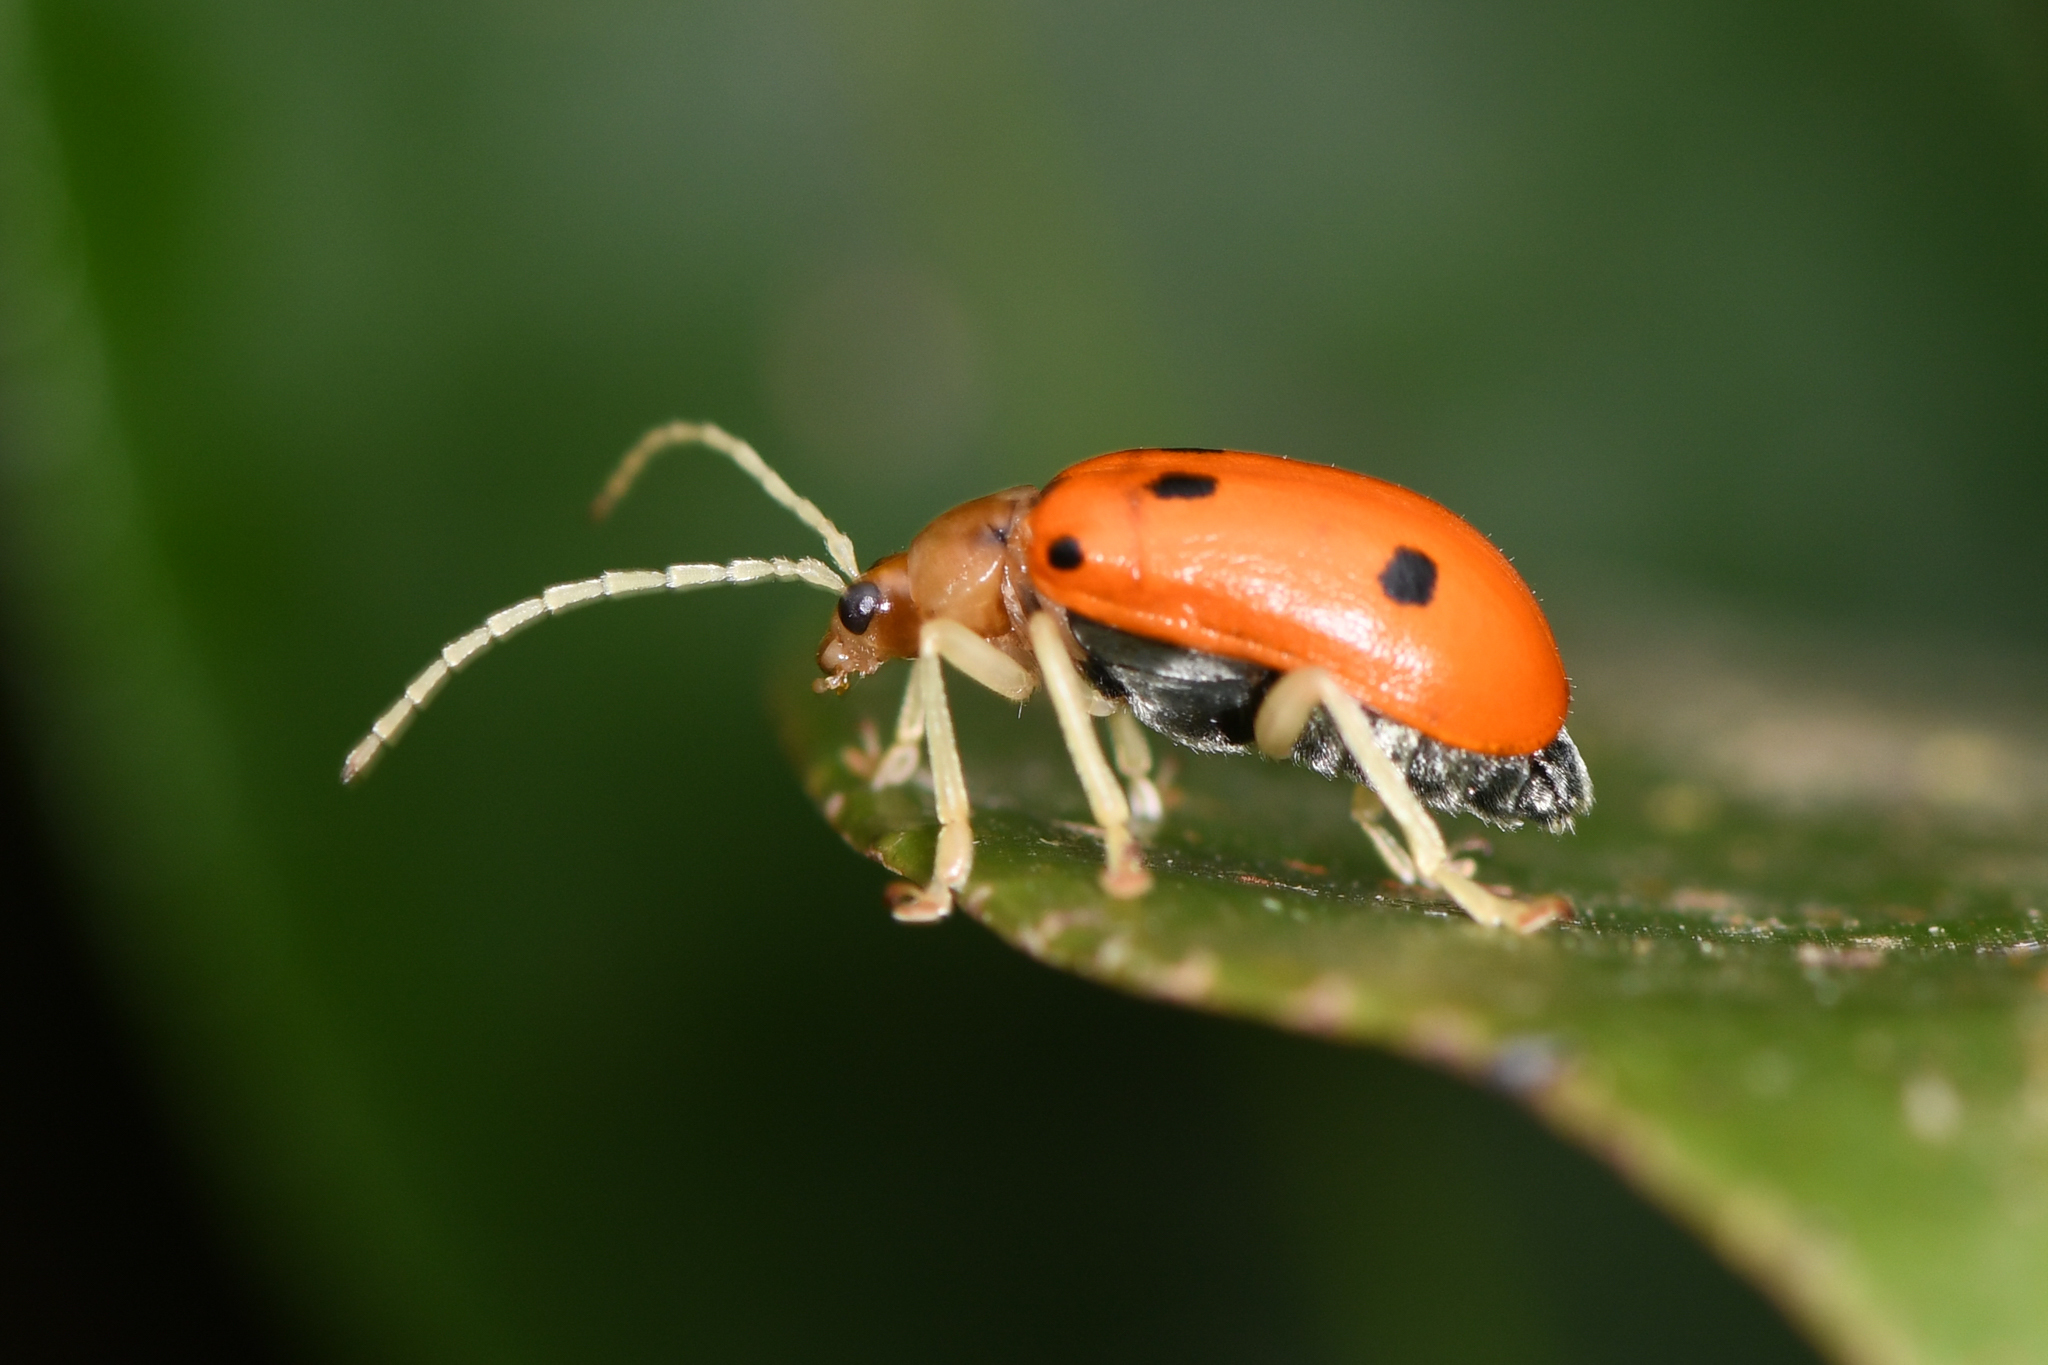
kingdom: Animalia
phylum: Arthropoda
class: Insecta
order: Coleoptera
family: Chrysomelidae
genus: Isotes
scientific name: Isotes
